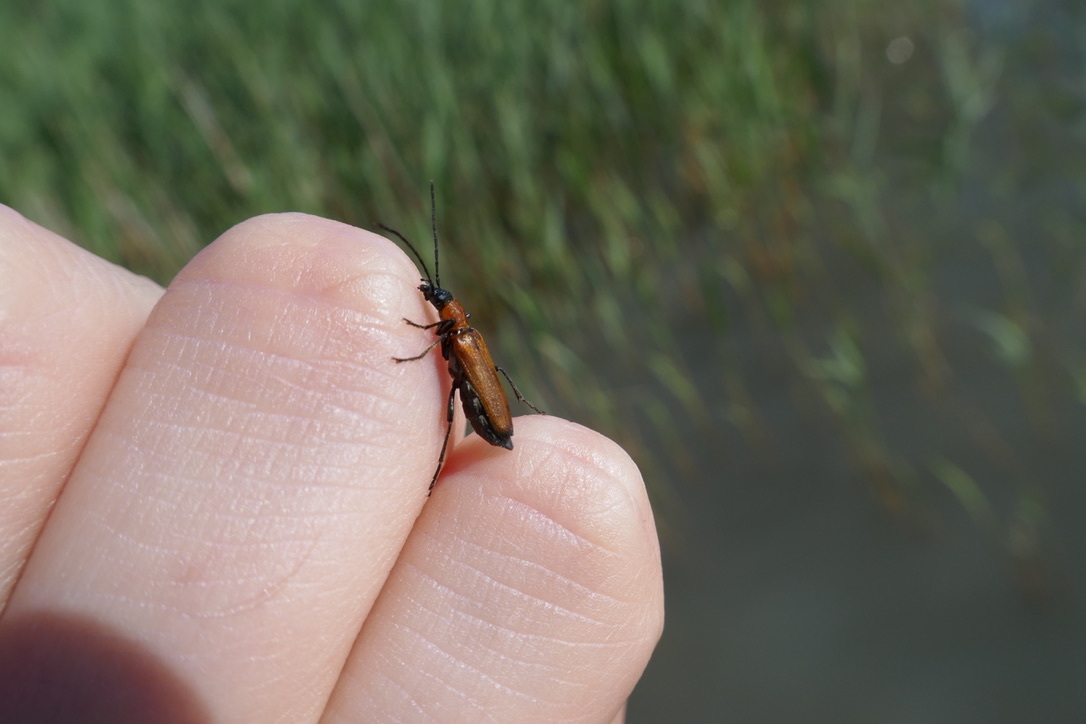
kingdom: Animalia
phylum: Arthropoda
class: Insecta
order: Coleoptera
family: Oedemeridae
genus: Anogcodes
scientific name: Anogcodes ustulatus
